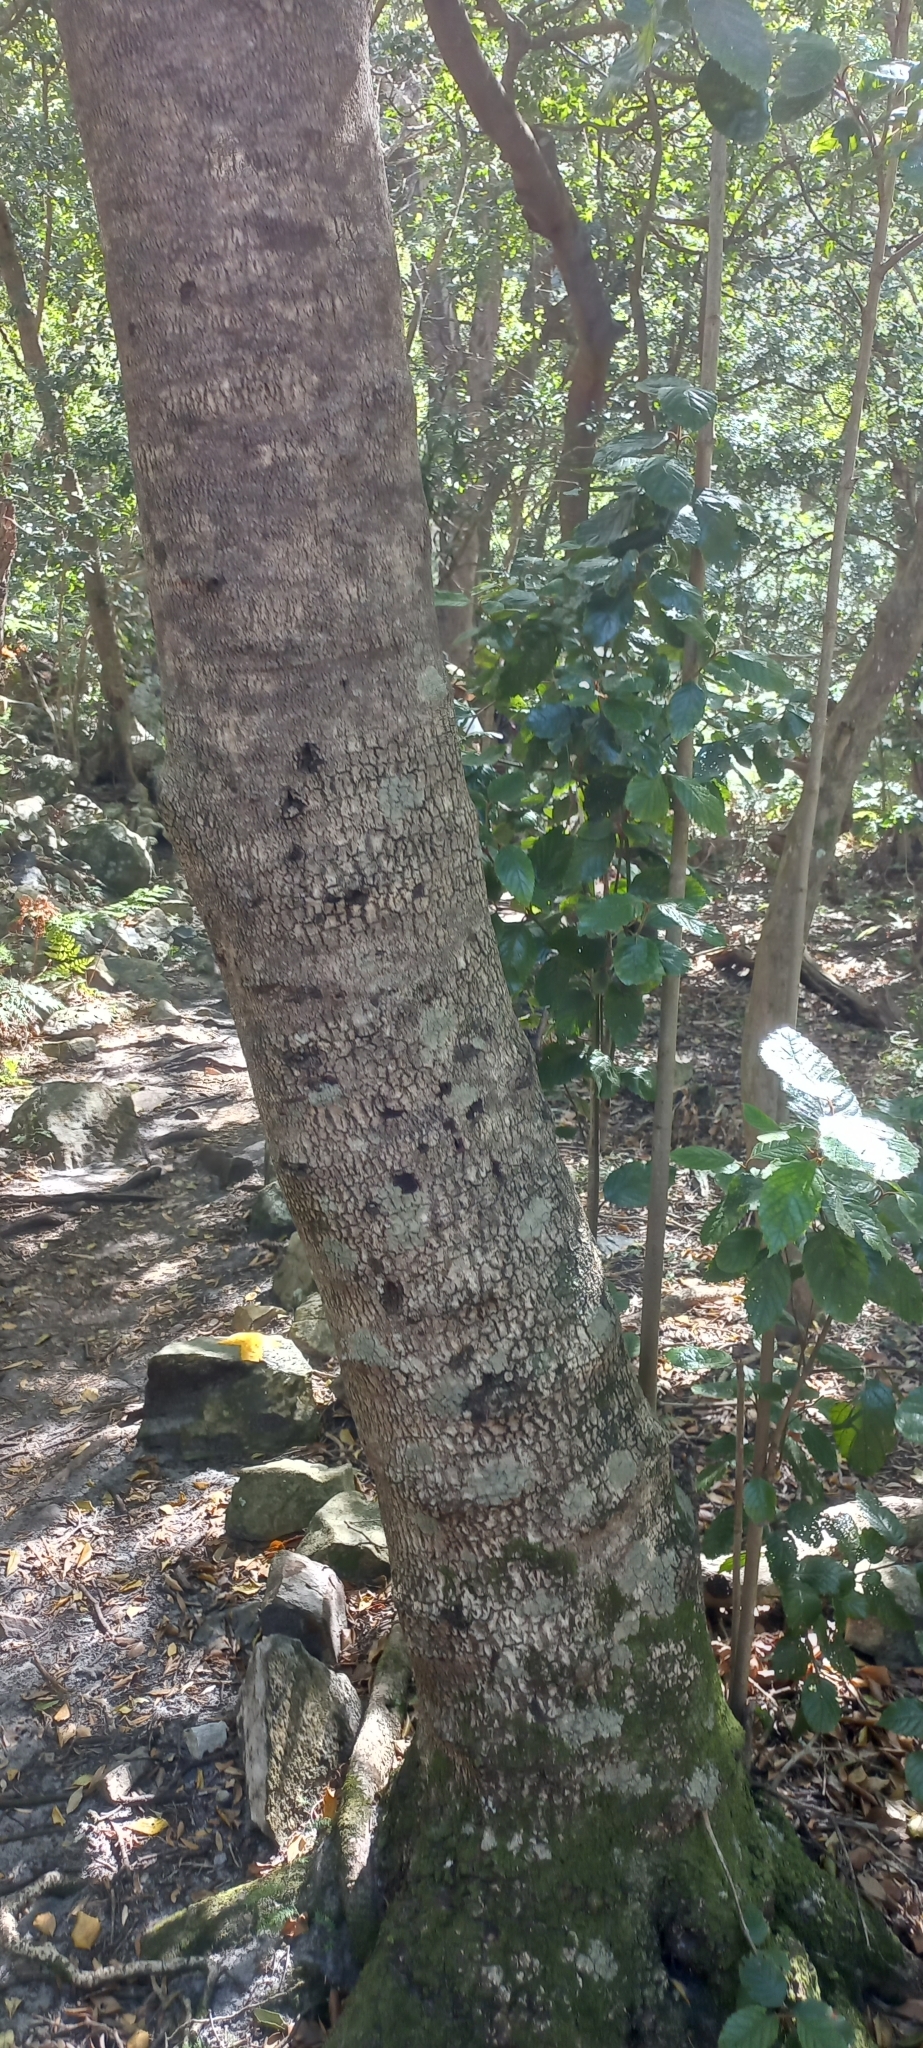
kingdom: Plantae
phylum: Tracheophyta
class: Magnoliopsida
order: Cornales
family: Curtisiaceae
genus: Curtisia
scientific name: Curtisia dentata
